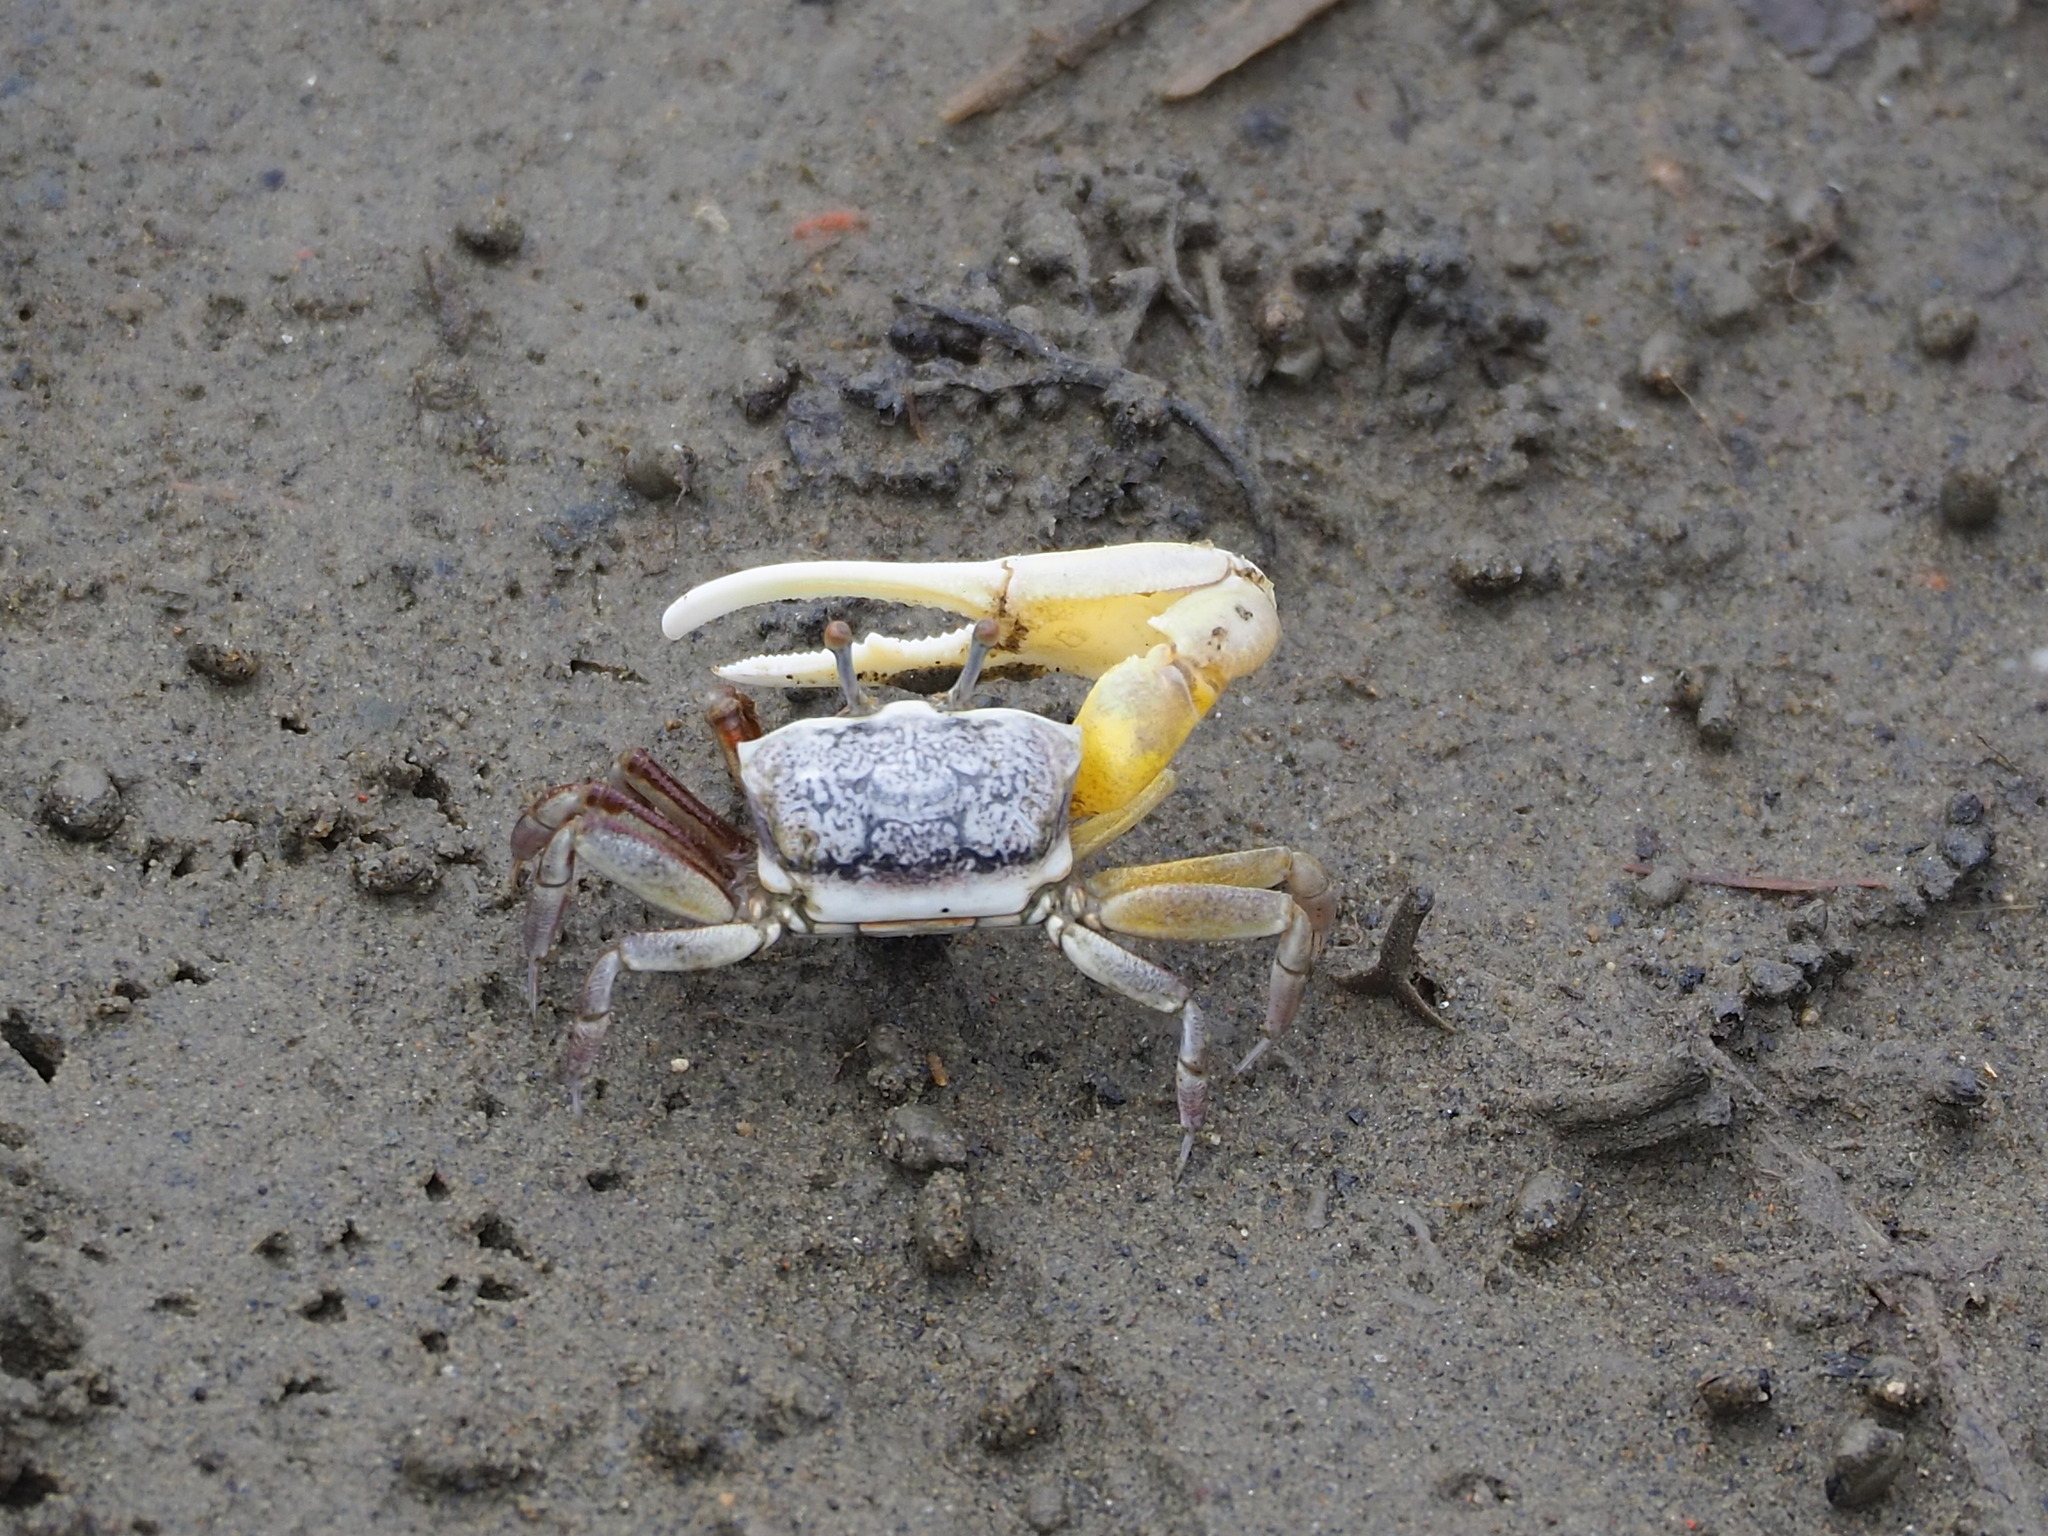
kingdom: Animalia
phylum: Arthropoda
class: Malacostraca
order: Decapoda
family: Ocypodidae
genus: Austruca
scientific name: Austruca lactea
